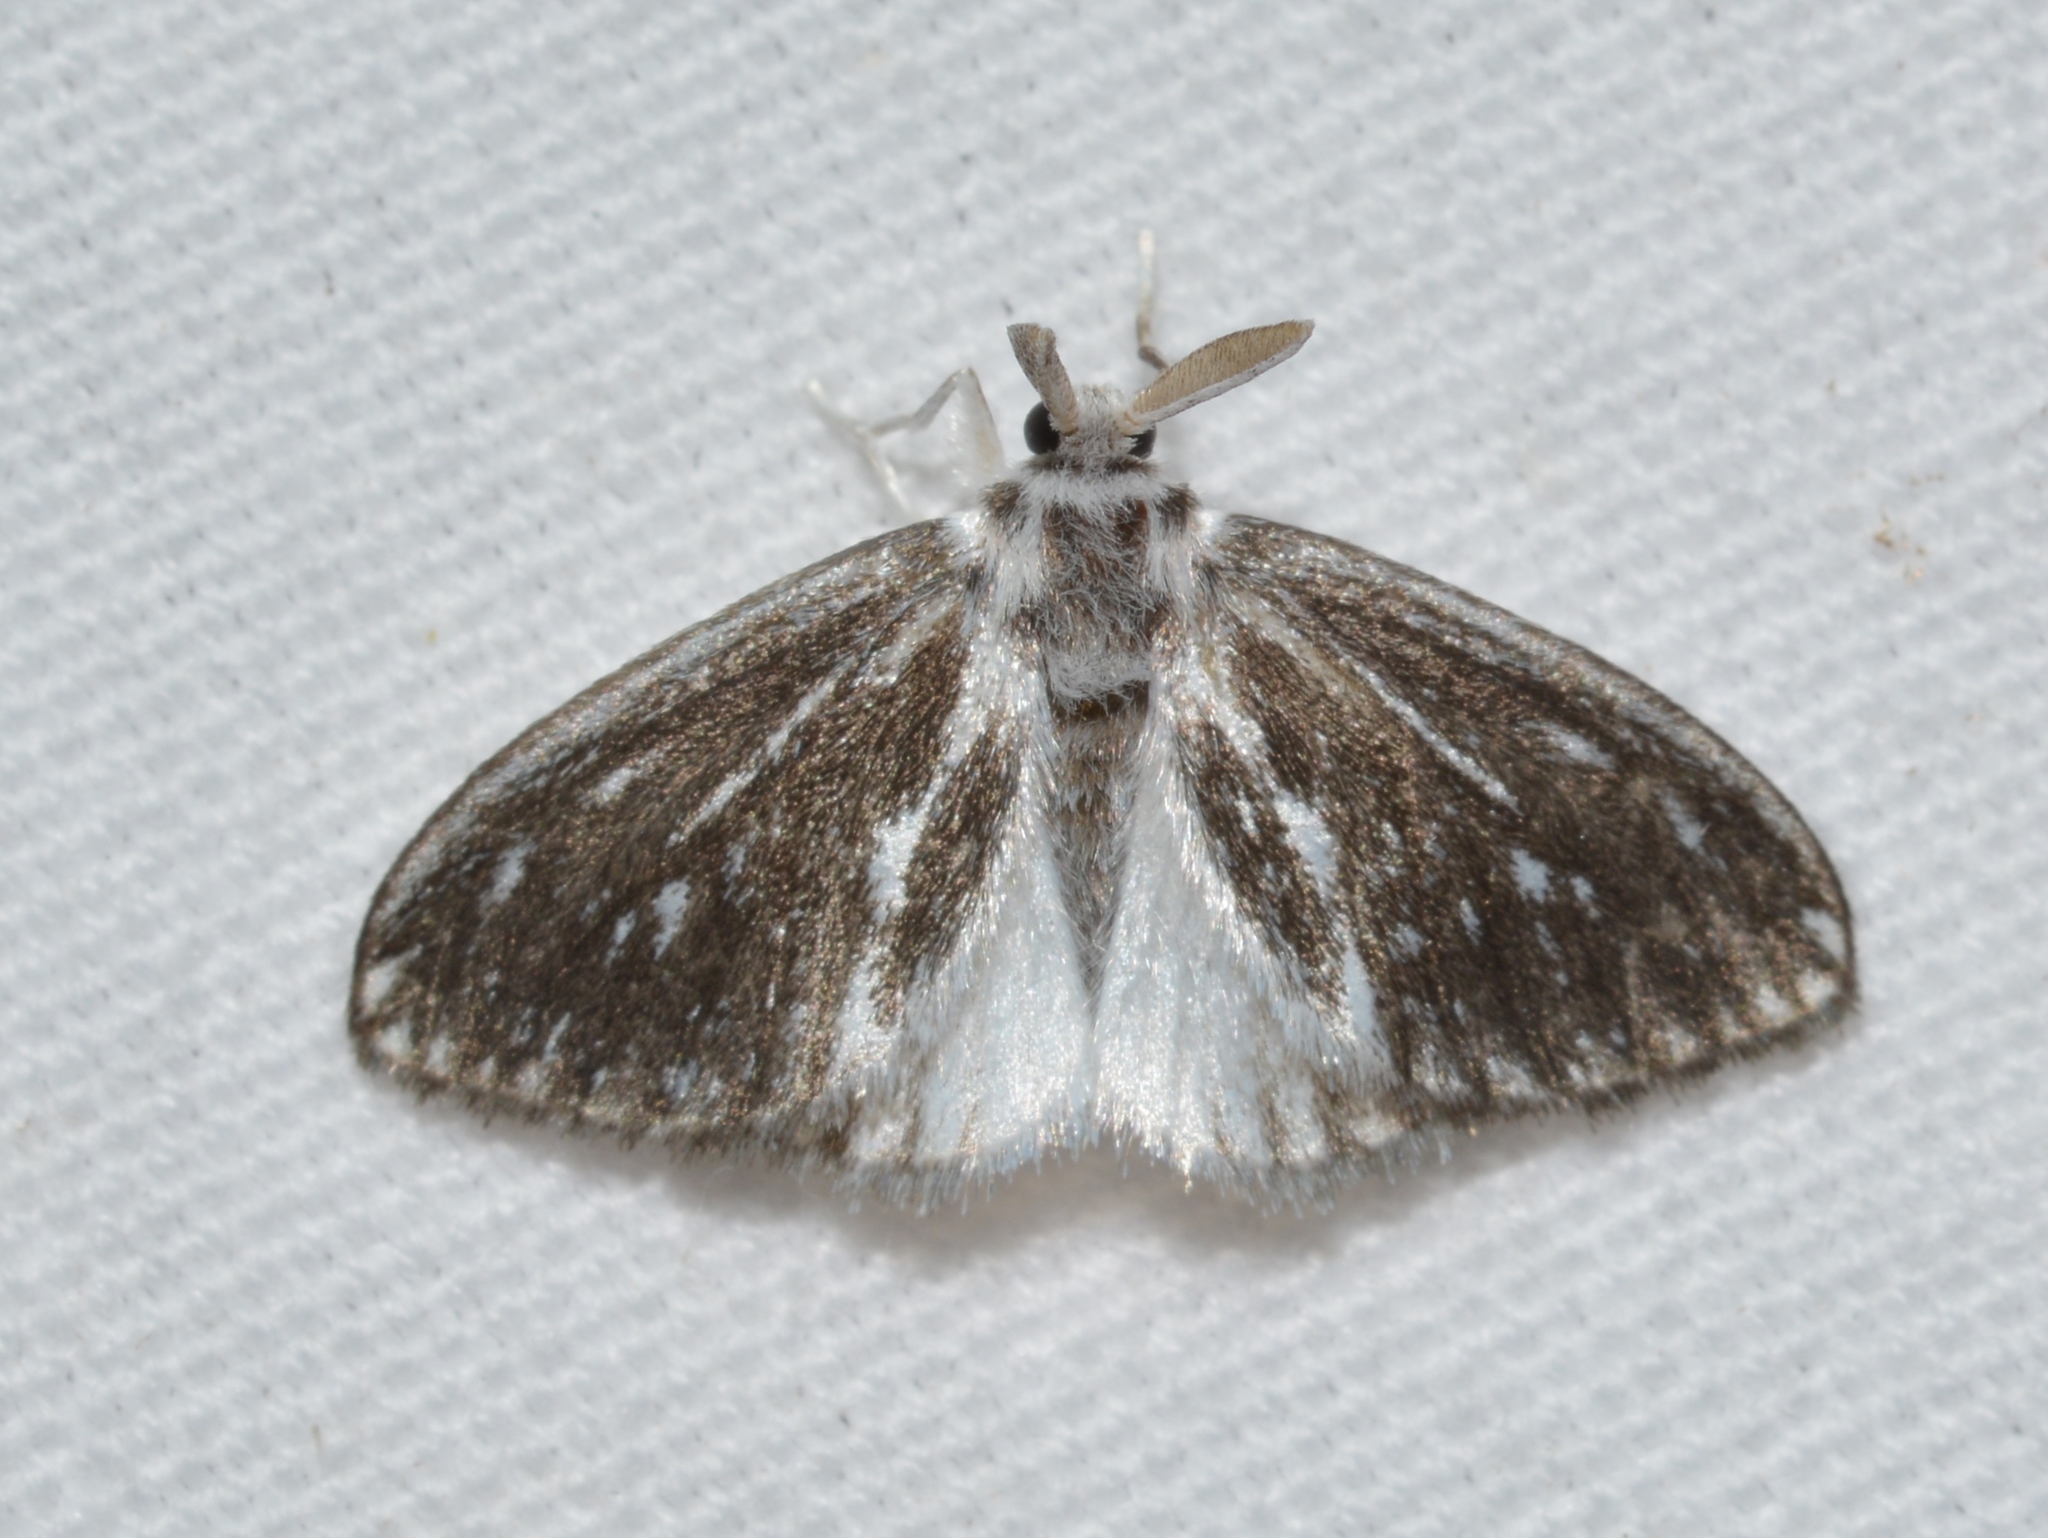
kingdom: Animalia
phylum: Arthropoda
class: Insecta
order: Lepidoptera
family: Megalopygidae
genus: Coamorpha
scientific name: Coamorpha innoxia
